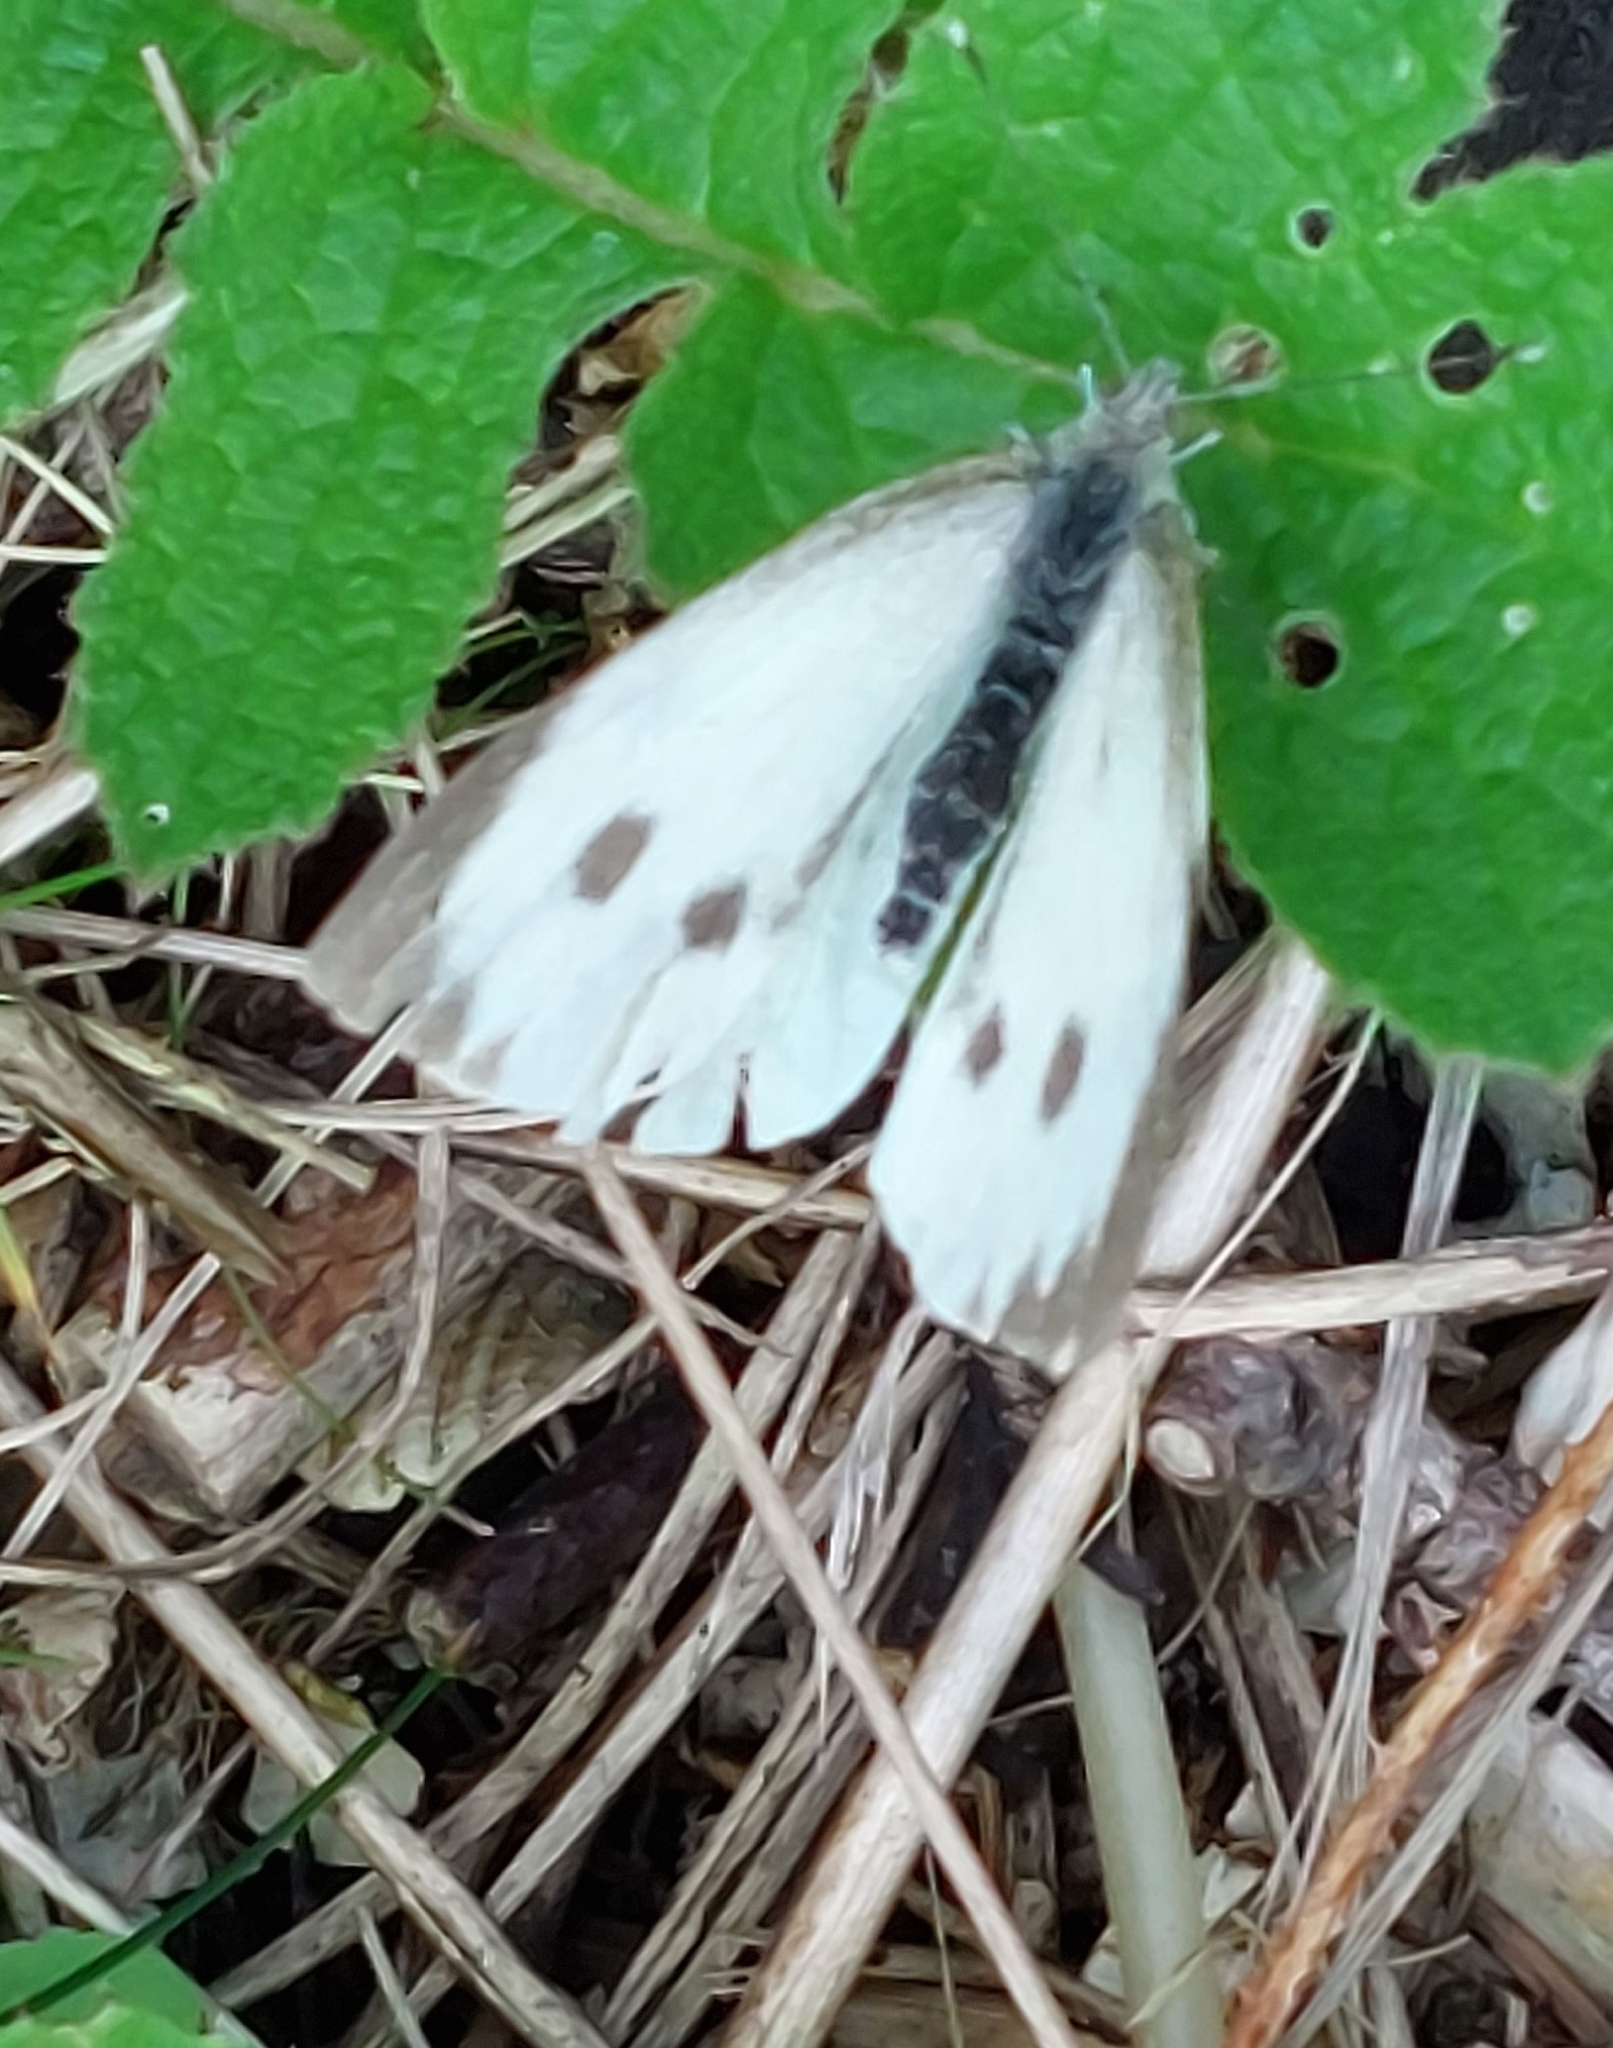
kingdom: Animalia
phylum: Arthropoda
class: Insecta
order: Lepidoptera
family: Pieridae
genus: Pieris
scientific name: Pieris brassicae
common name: Large white
